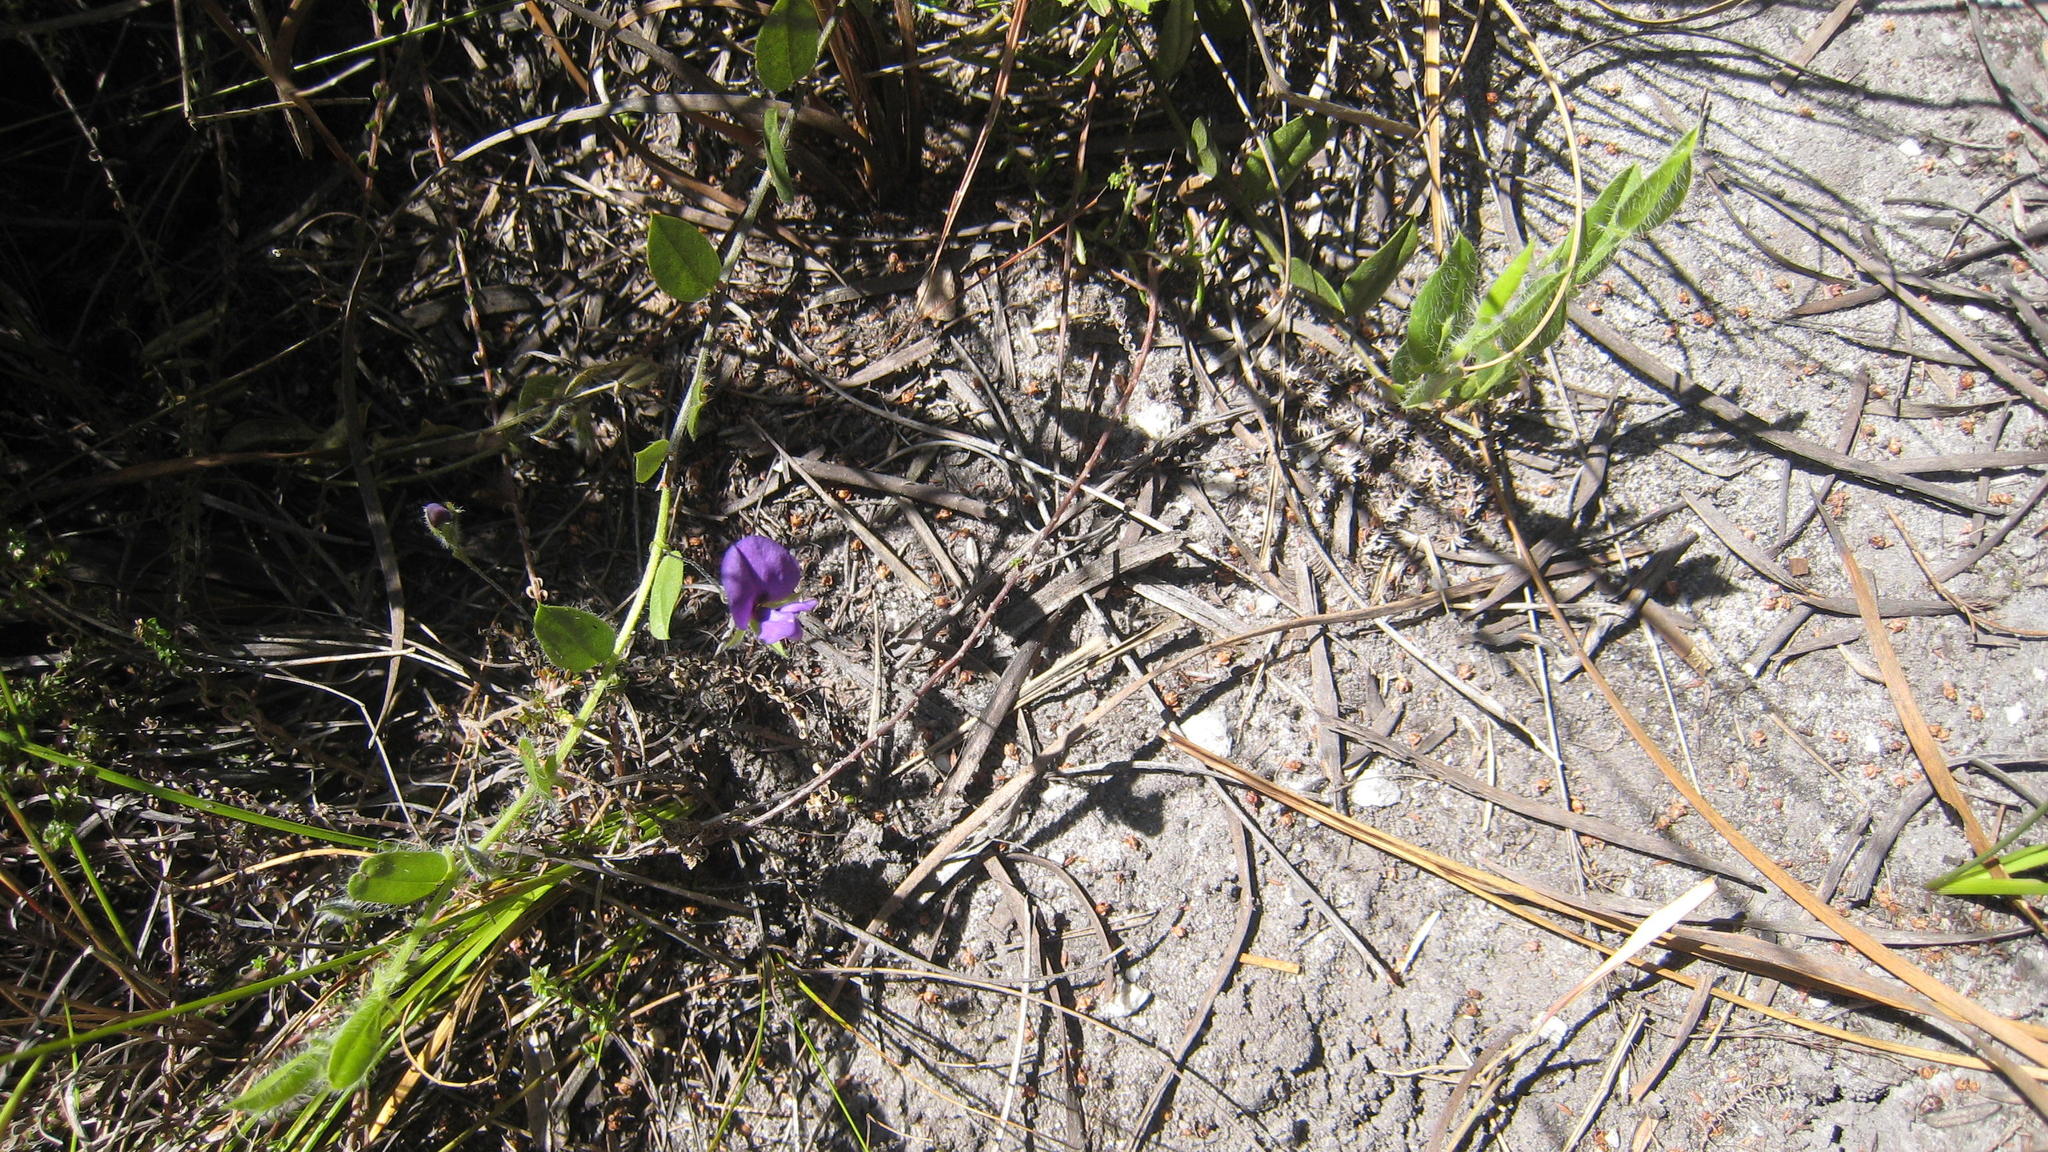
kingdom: Plantae
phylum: Tracheophyta
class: Magnoliopsida
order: Fabales
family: Fabaceae
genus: Psoralea
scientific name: Psoralea plauta
